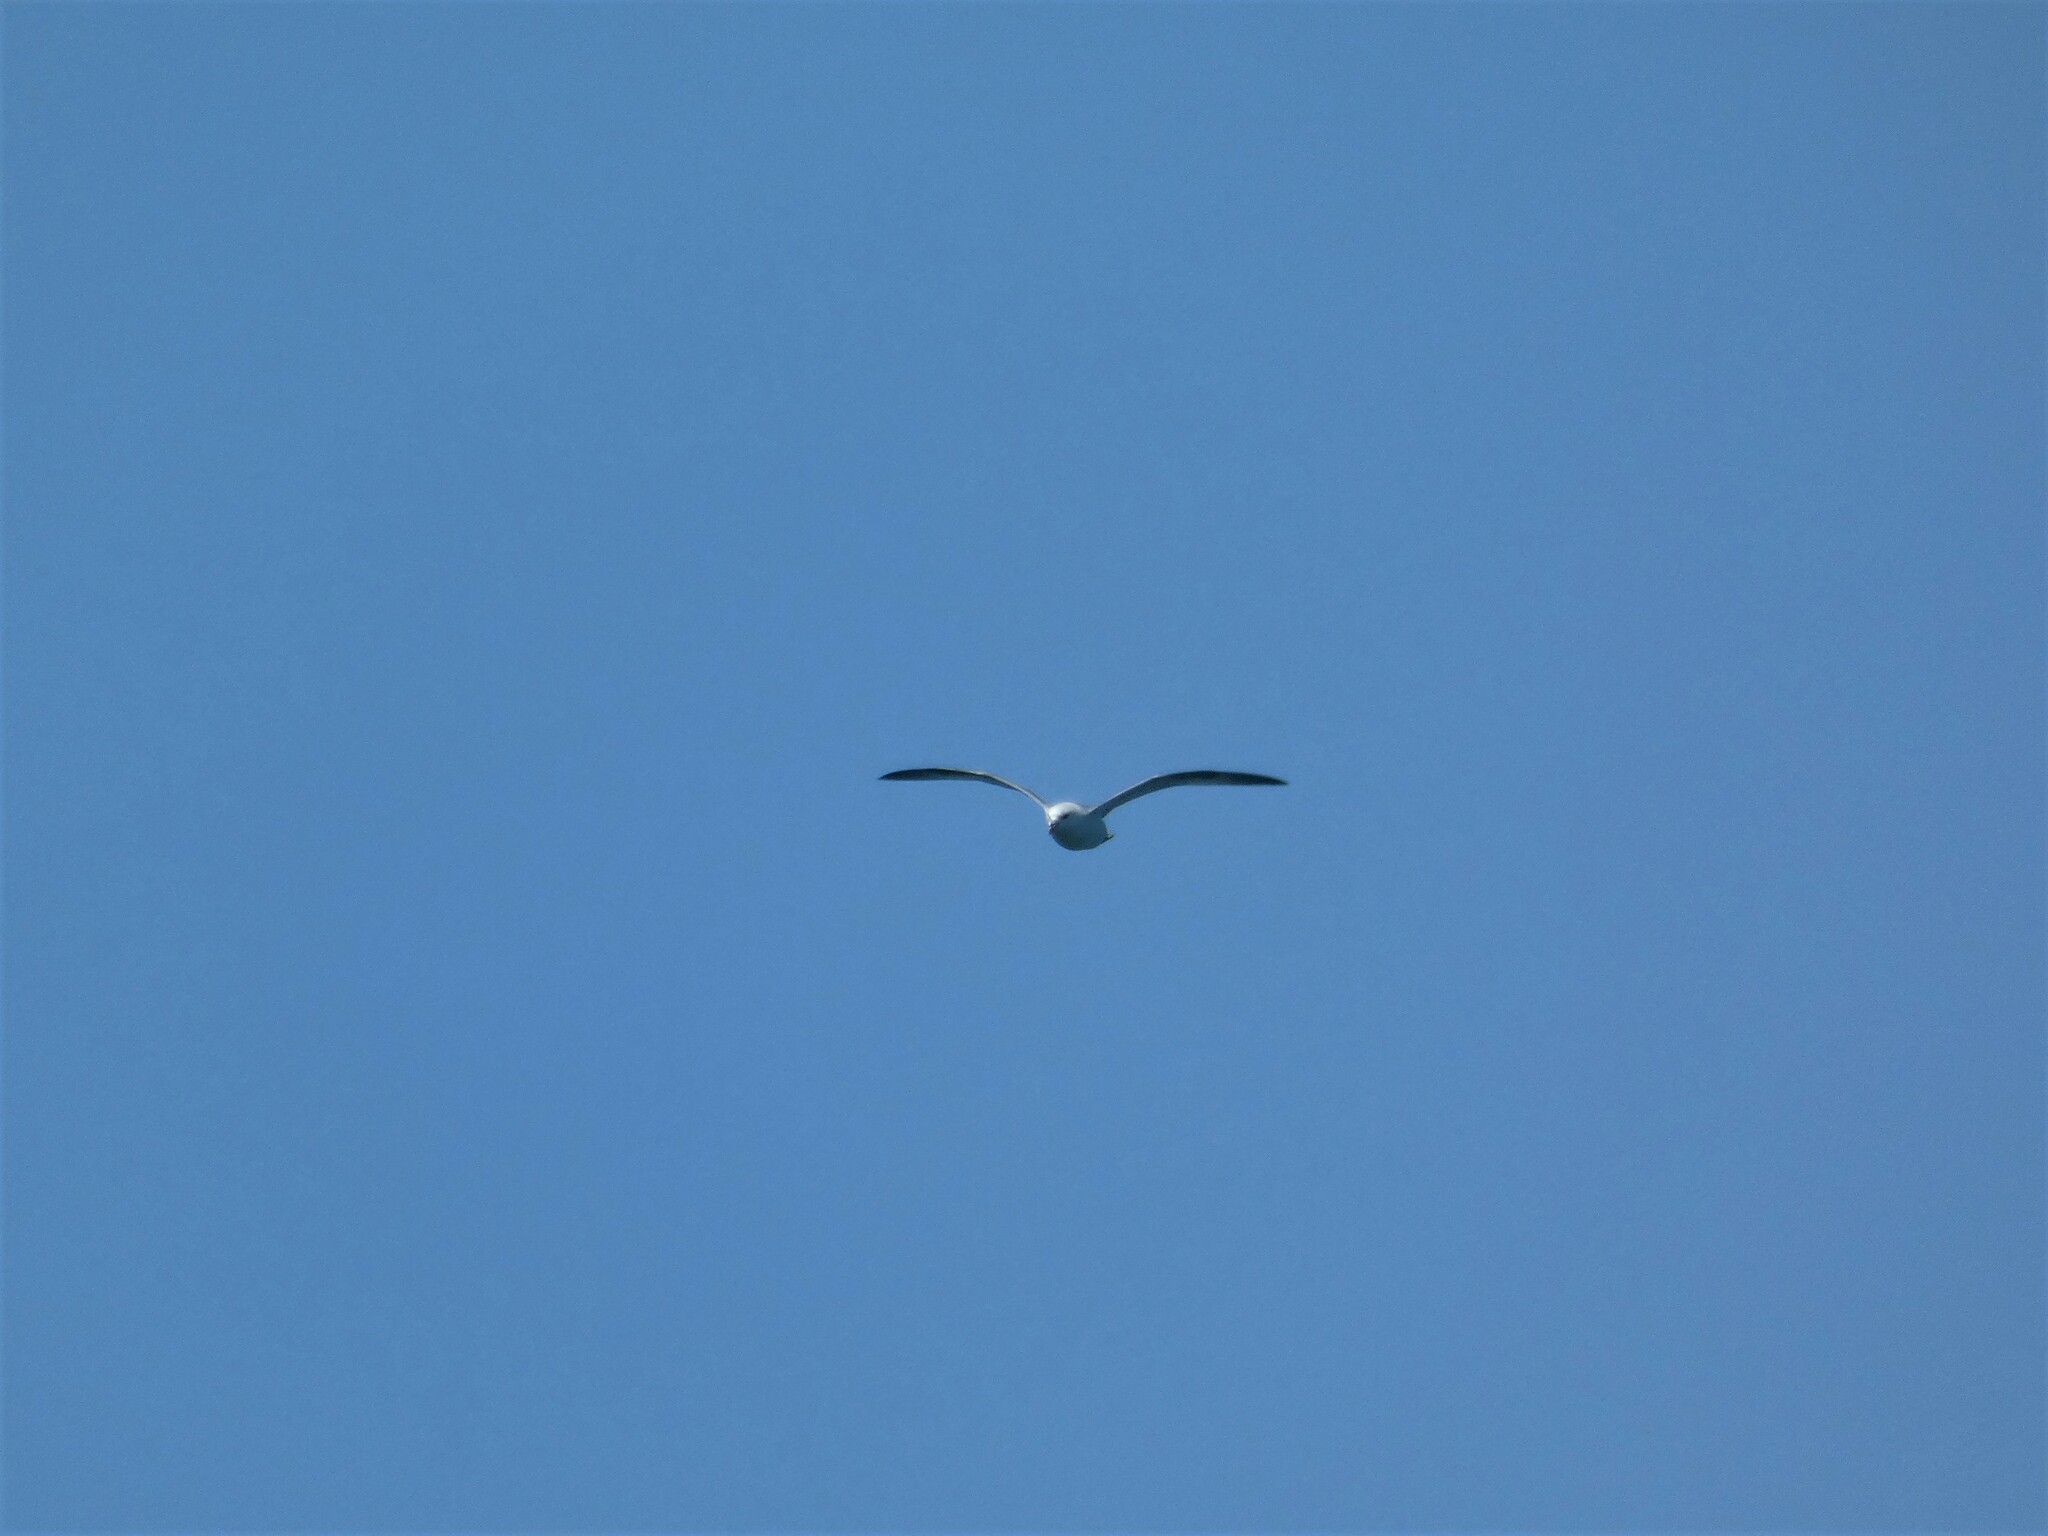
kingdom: Animalia
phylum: Chordata
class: Aves
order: Procellariiformes
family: Procellariidae
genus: Fulmarus
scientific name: Fulmarus glacialis
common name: Northern fulmar
